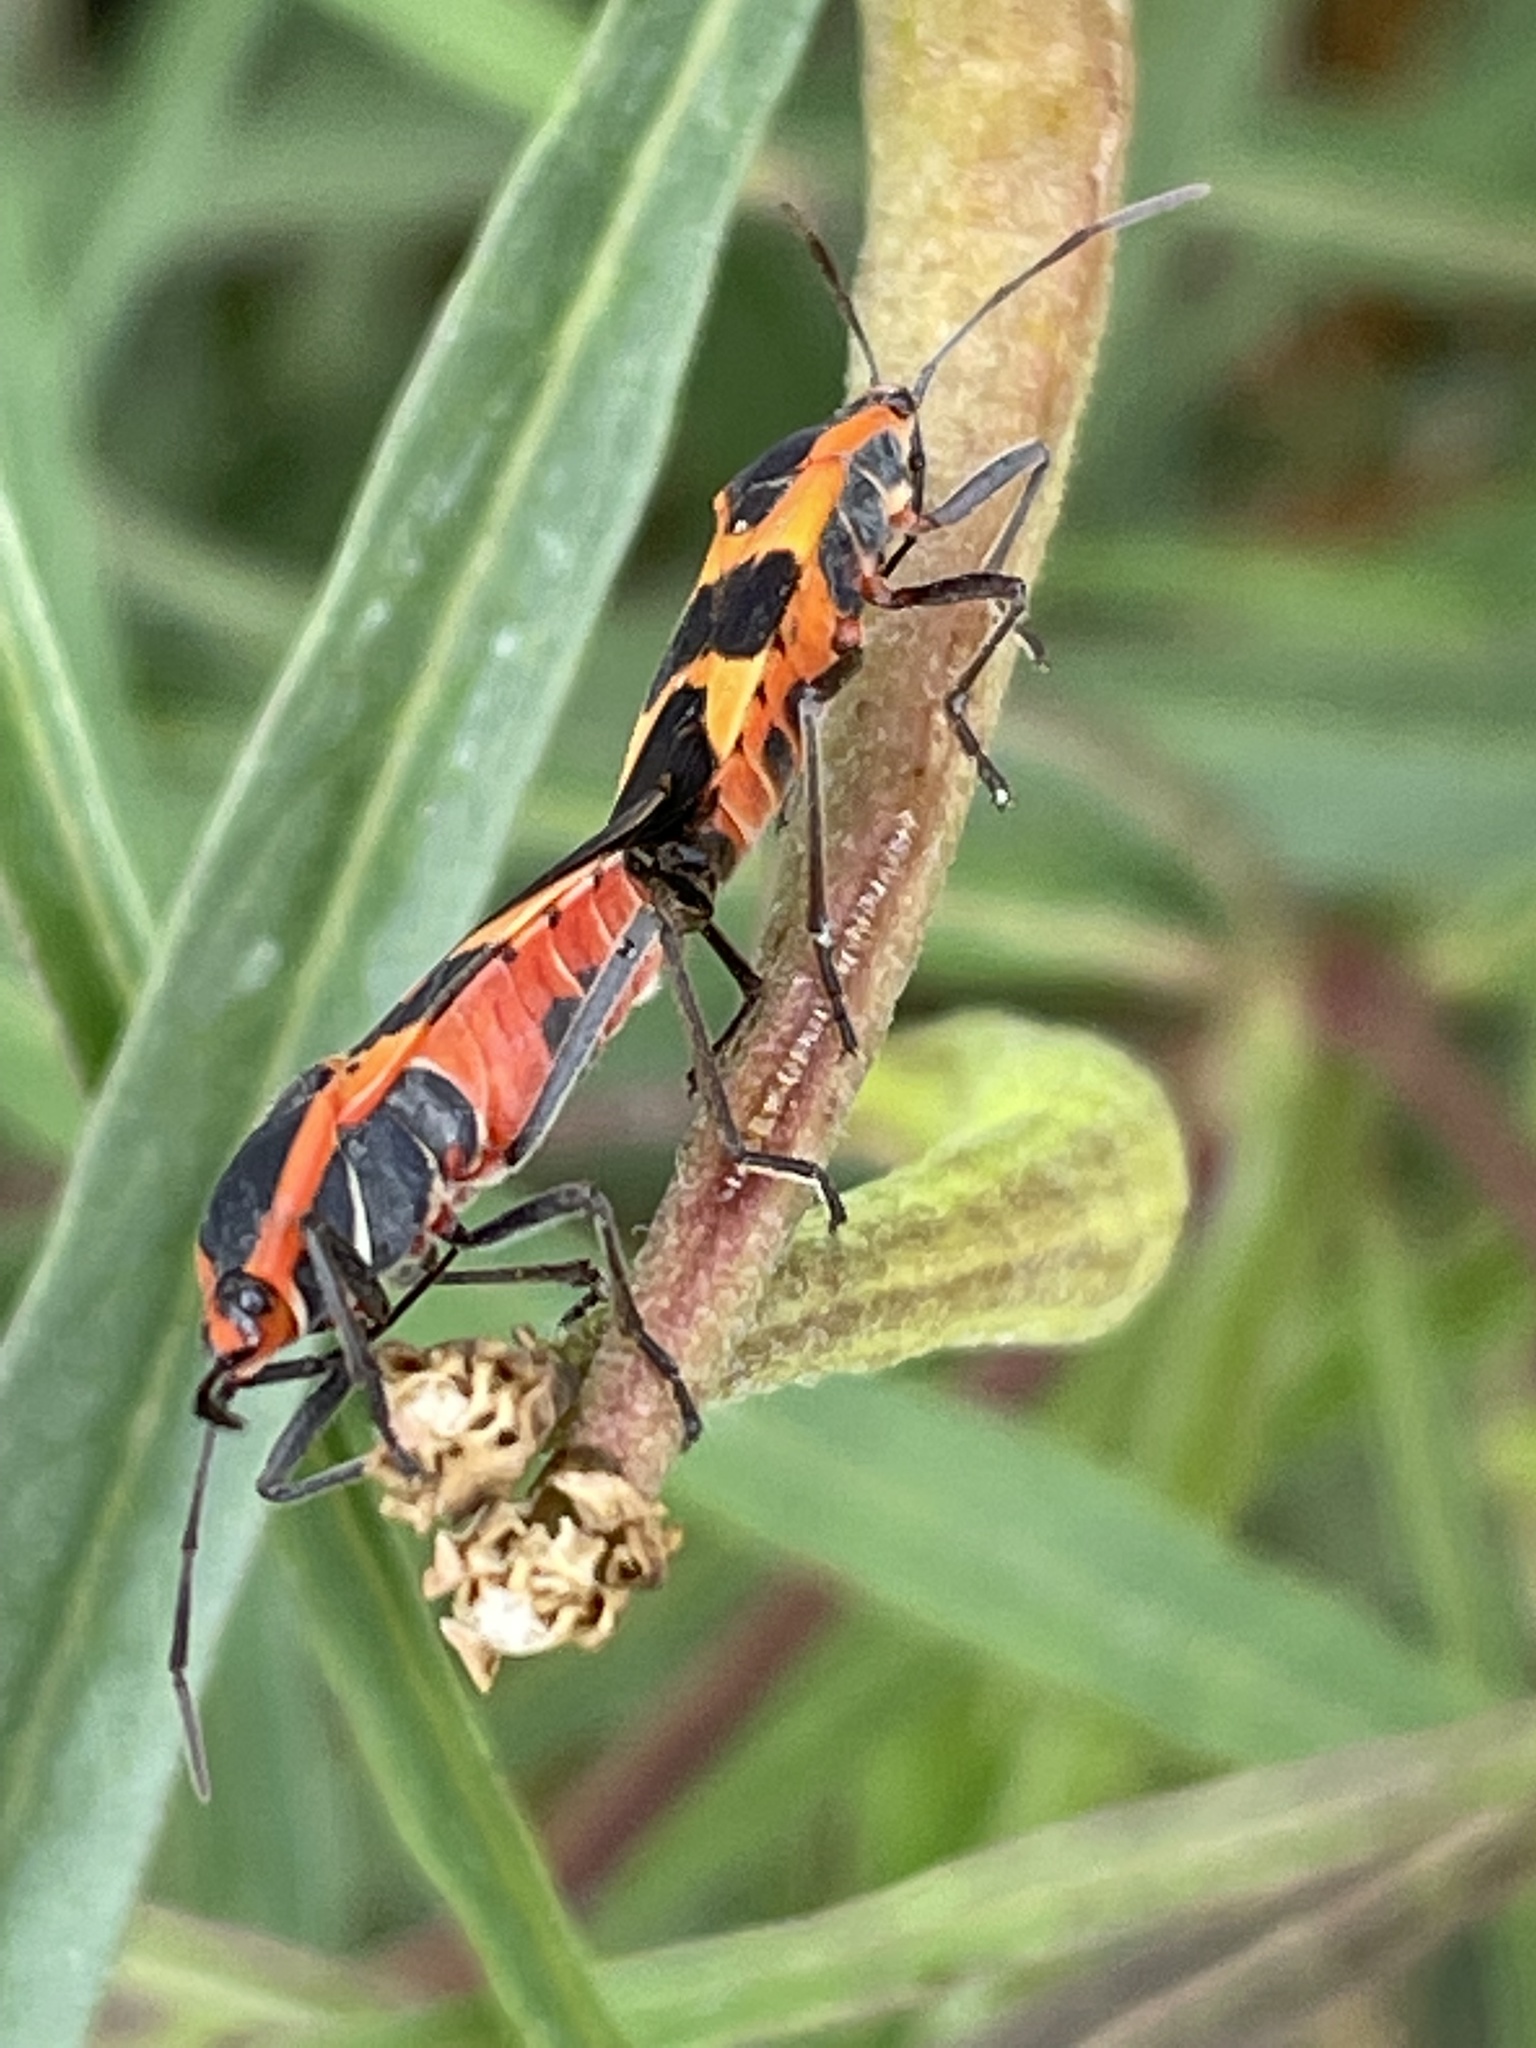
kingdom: Animalia
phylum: Arthropoda
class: Insecta
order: Hemiptera
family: Lygaeidae
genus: Oncopeltus
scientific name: Oncopeltus fasciatus
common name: Large milkweed bug
